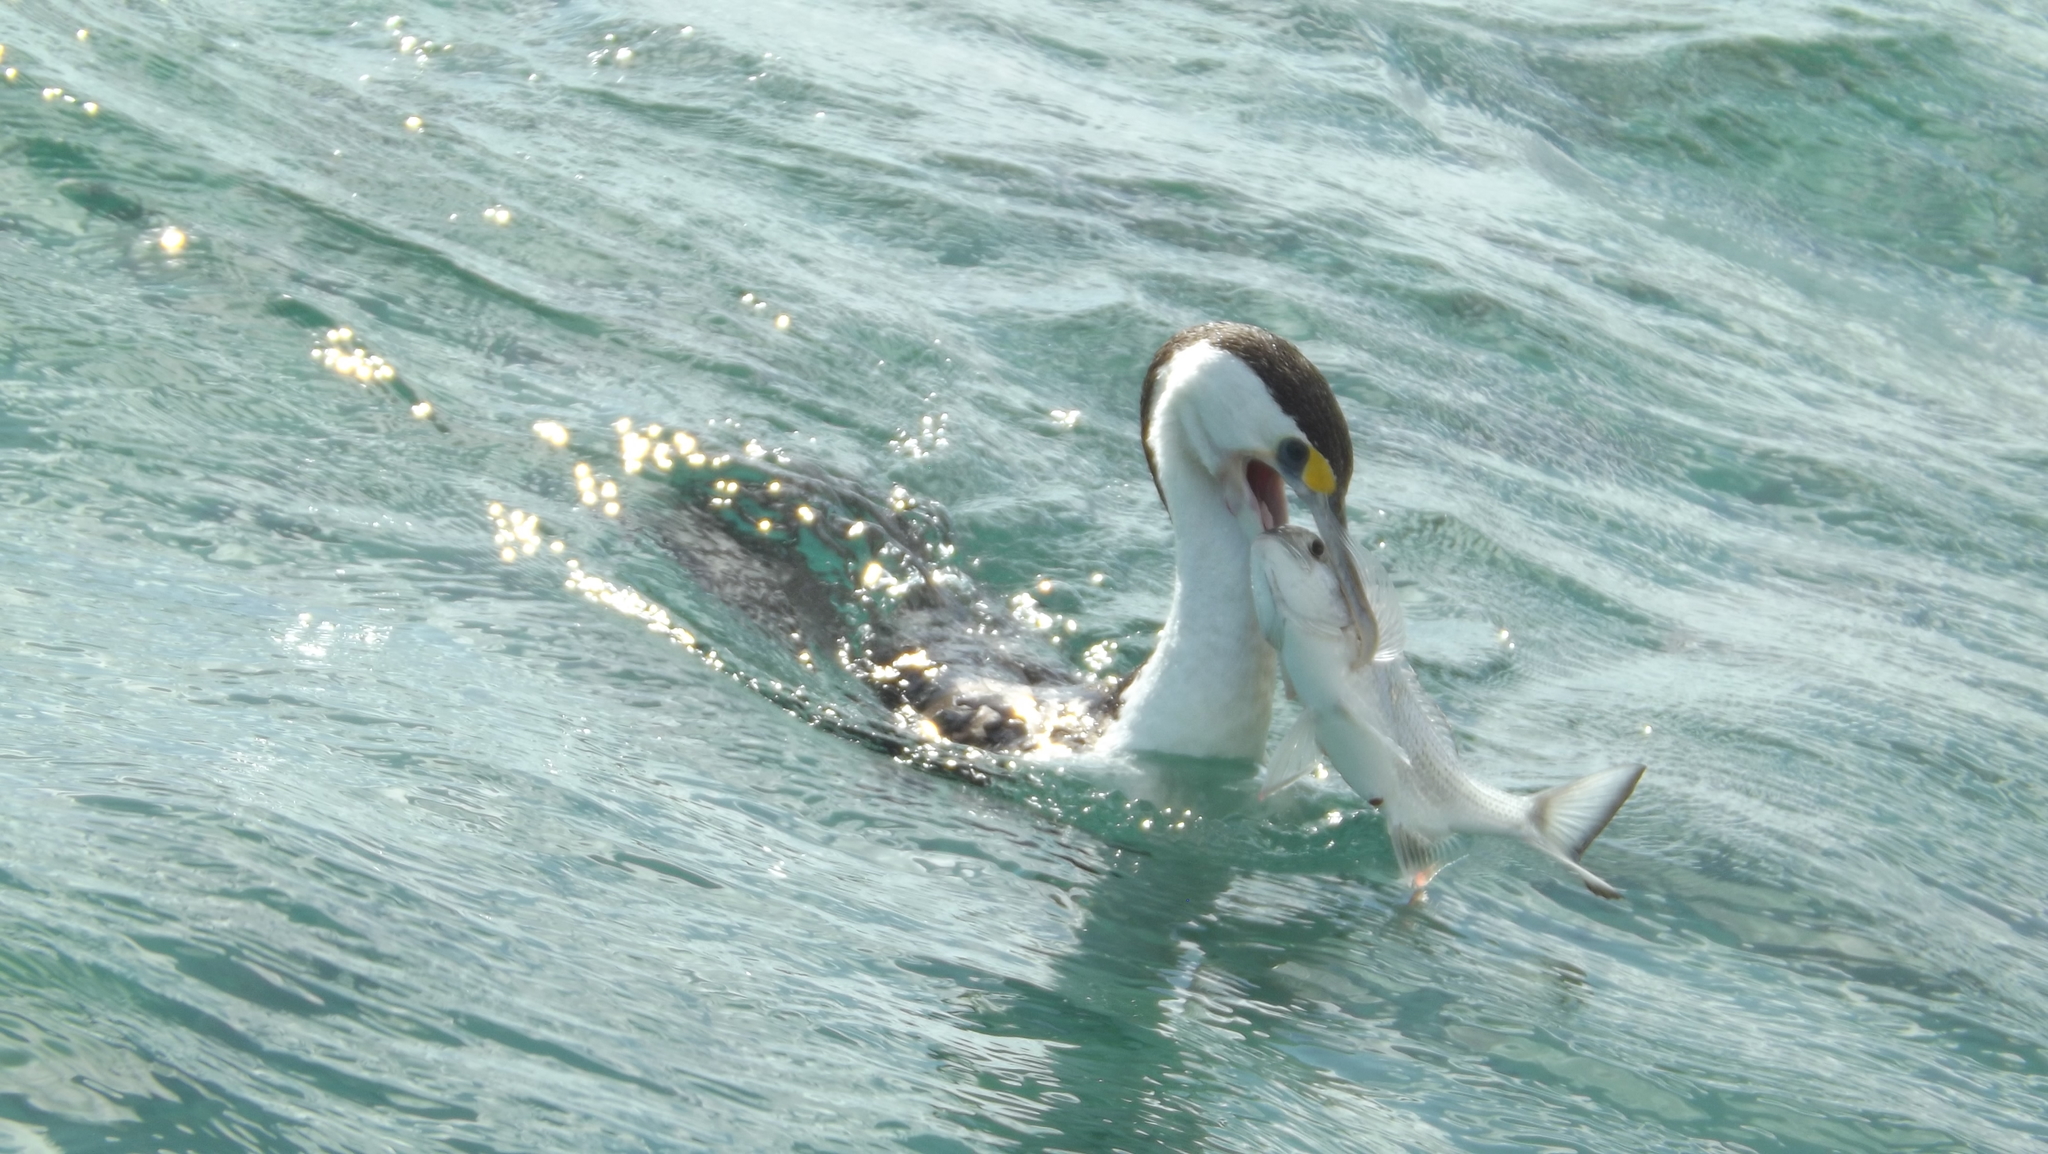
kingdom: Animalia
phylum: Chordata
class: Aves
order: Suliformes
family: Phalacrocoracidae
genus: Phalacrocorax
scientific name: Phalacrocorax varius
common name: Pied cormorant
